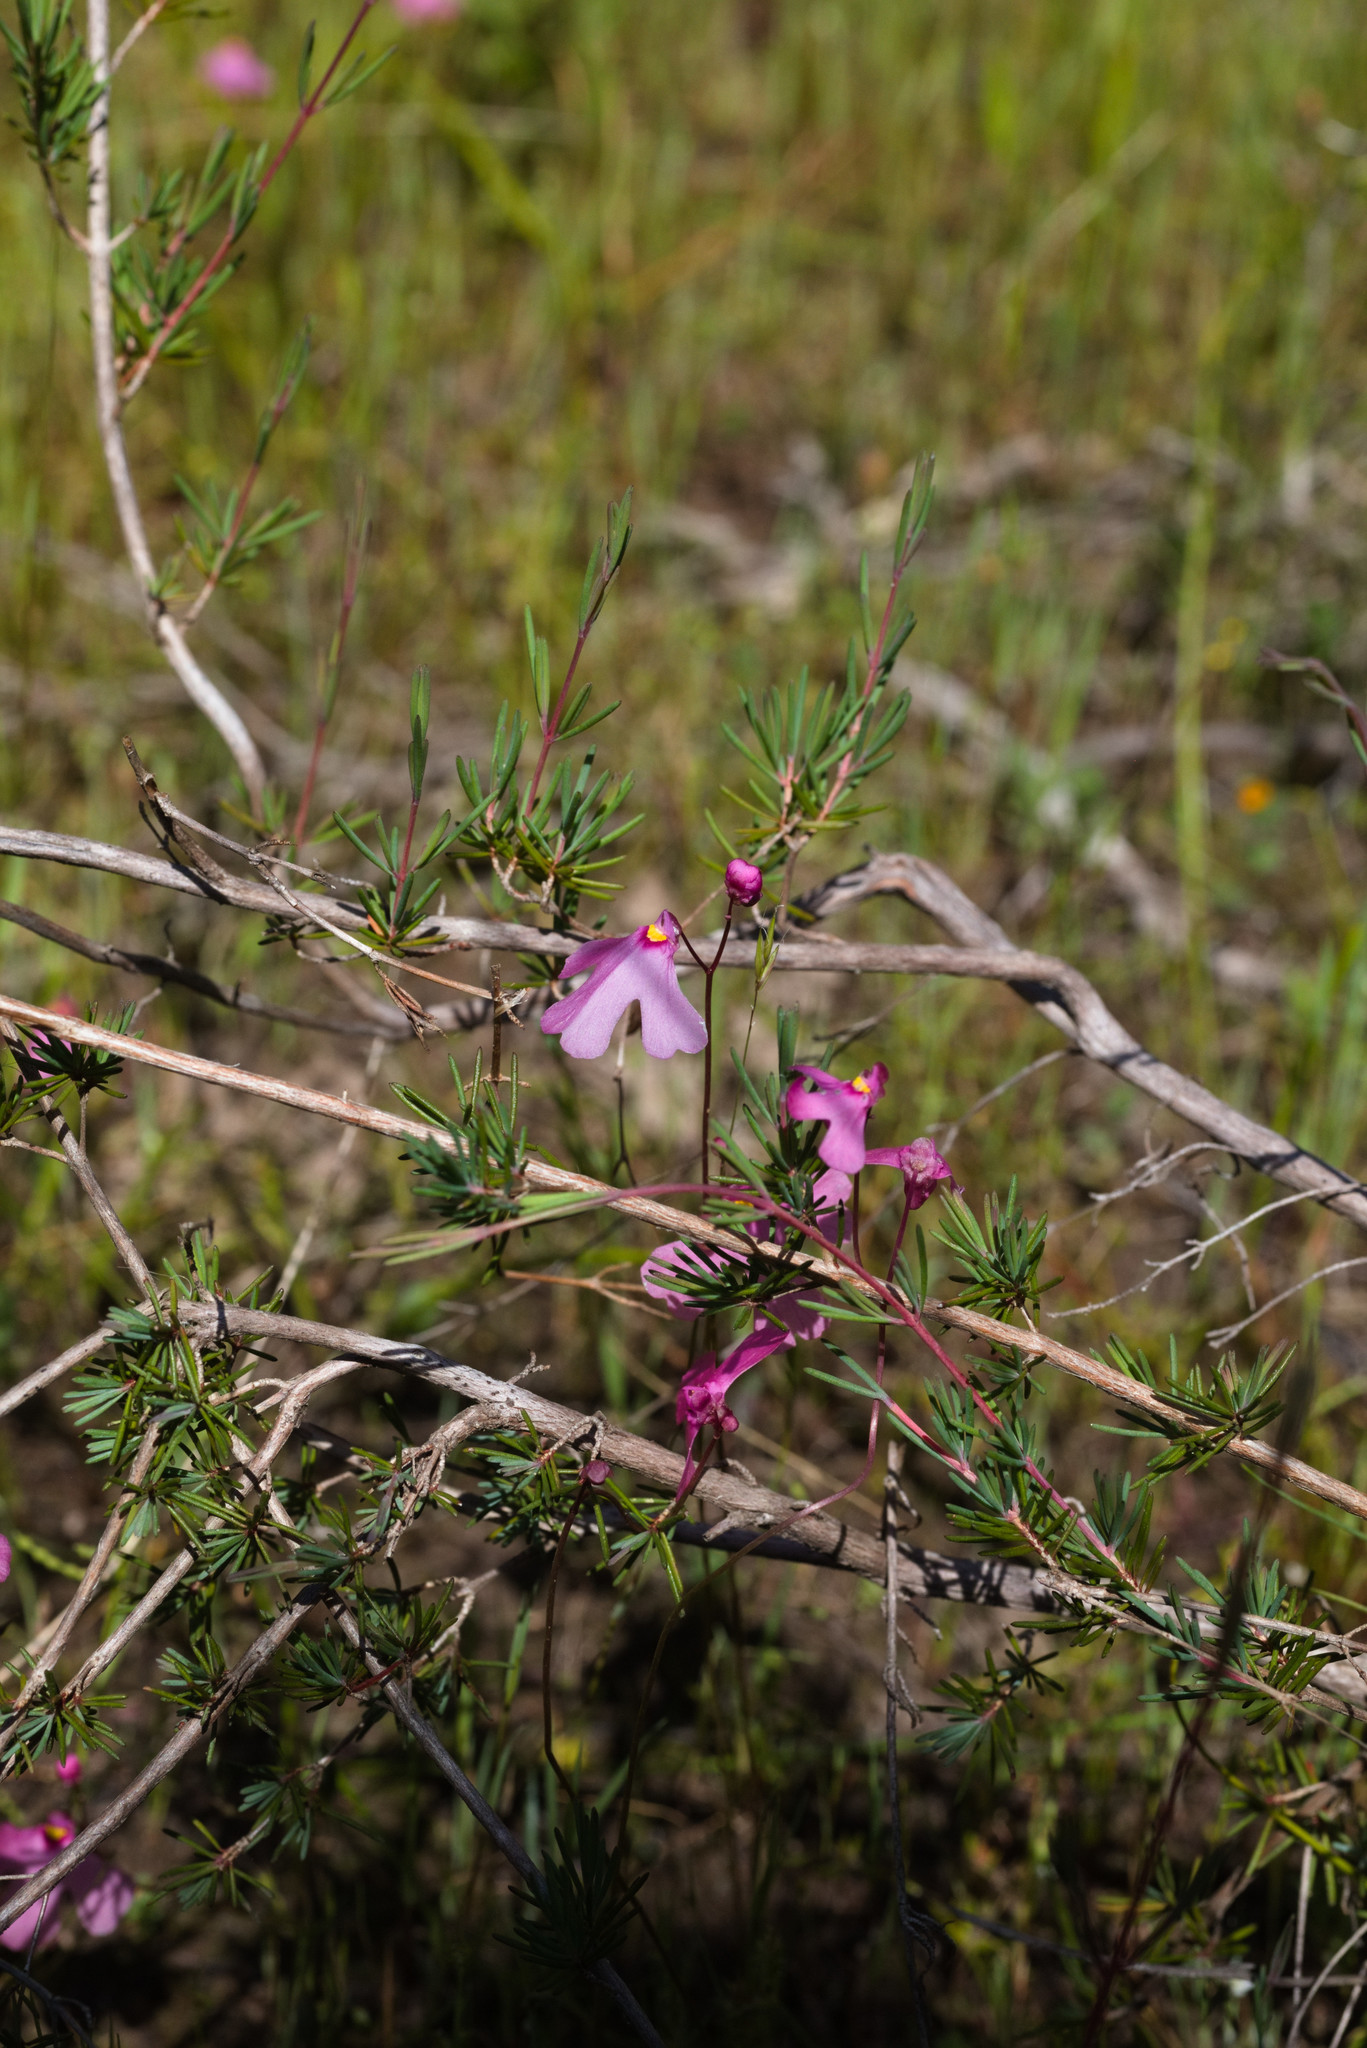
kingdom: Plantae
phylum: Tracheophyta
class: Magnoliopsida
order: Lamiales
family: Lentibulariaceae
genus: Utricularia
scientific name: Utricularia multifida
